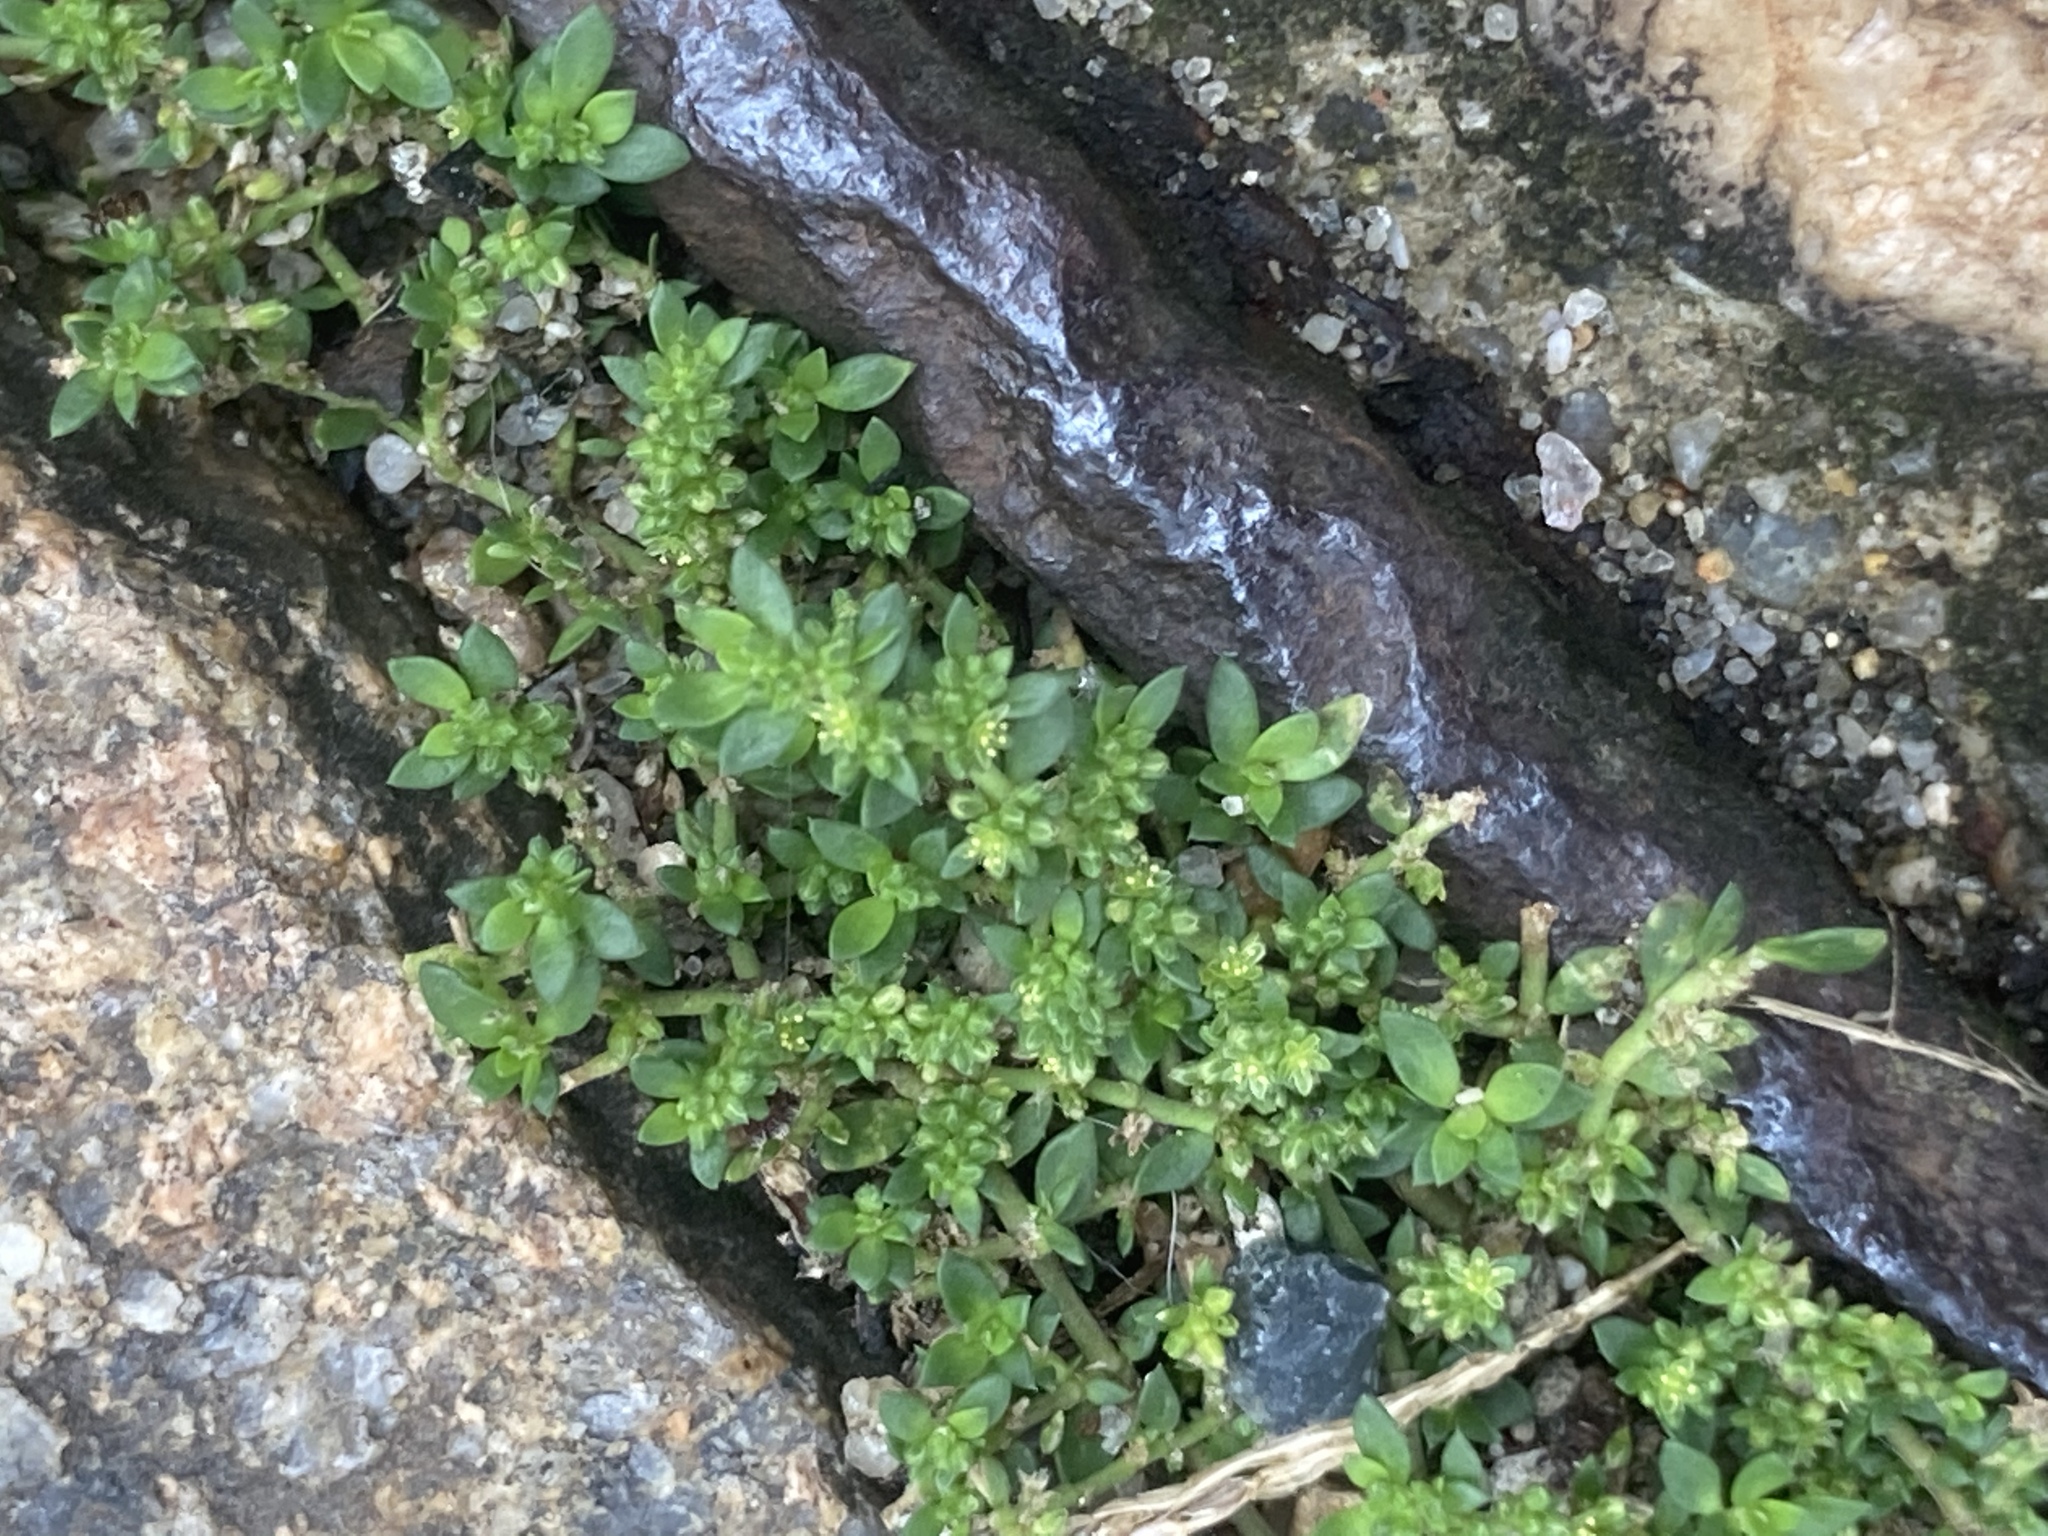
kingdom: Plantae
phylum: Tracheophyta
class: Magnoliopsida
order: Caryophyllales
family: Caryophyllaceae
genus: Herniaria
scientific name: Herniaria glabra
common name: Smooth rupturewort
